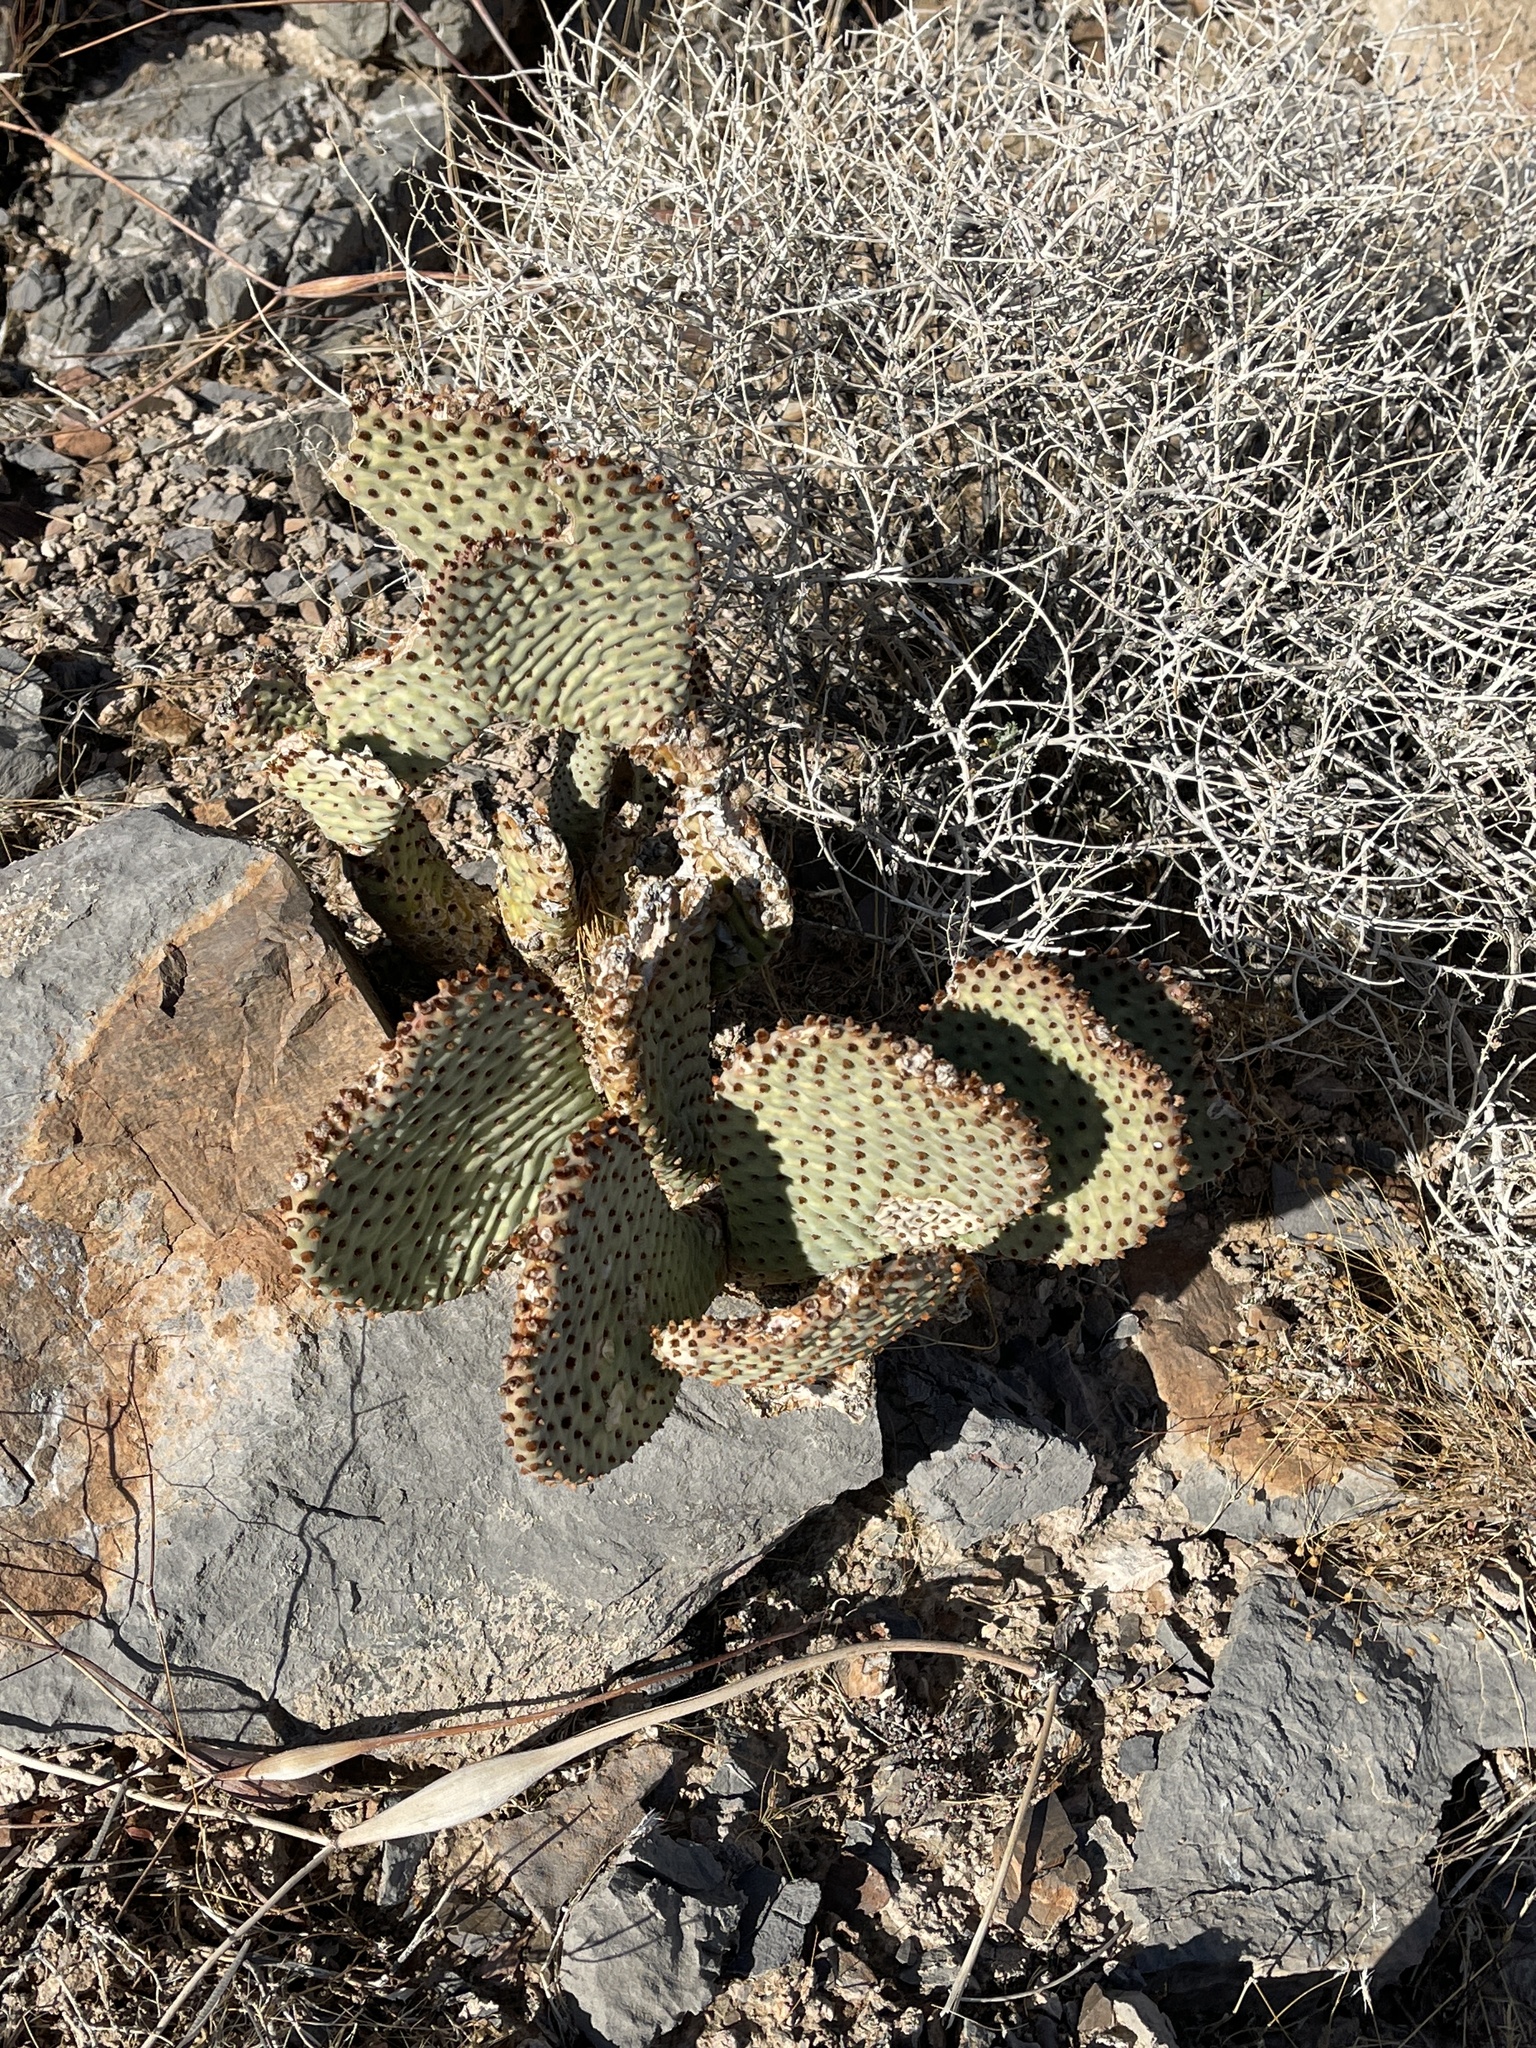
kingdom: Plantae
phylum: Tracheophyta
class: Magnoliopsida
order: Caryophyllales
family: Cactaceae
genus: Opuntia
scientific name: Opuntia basilaris
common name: Beavertail prickly-pear
